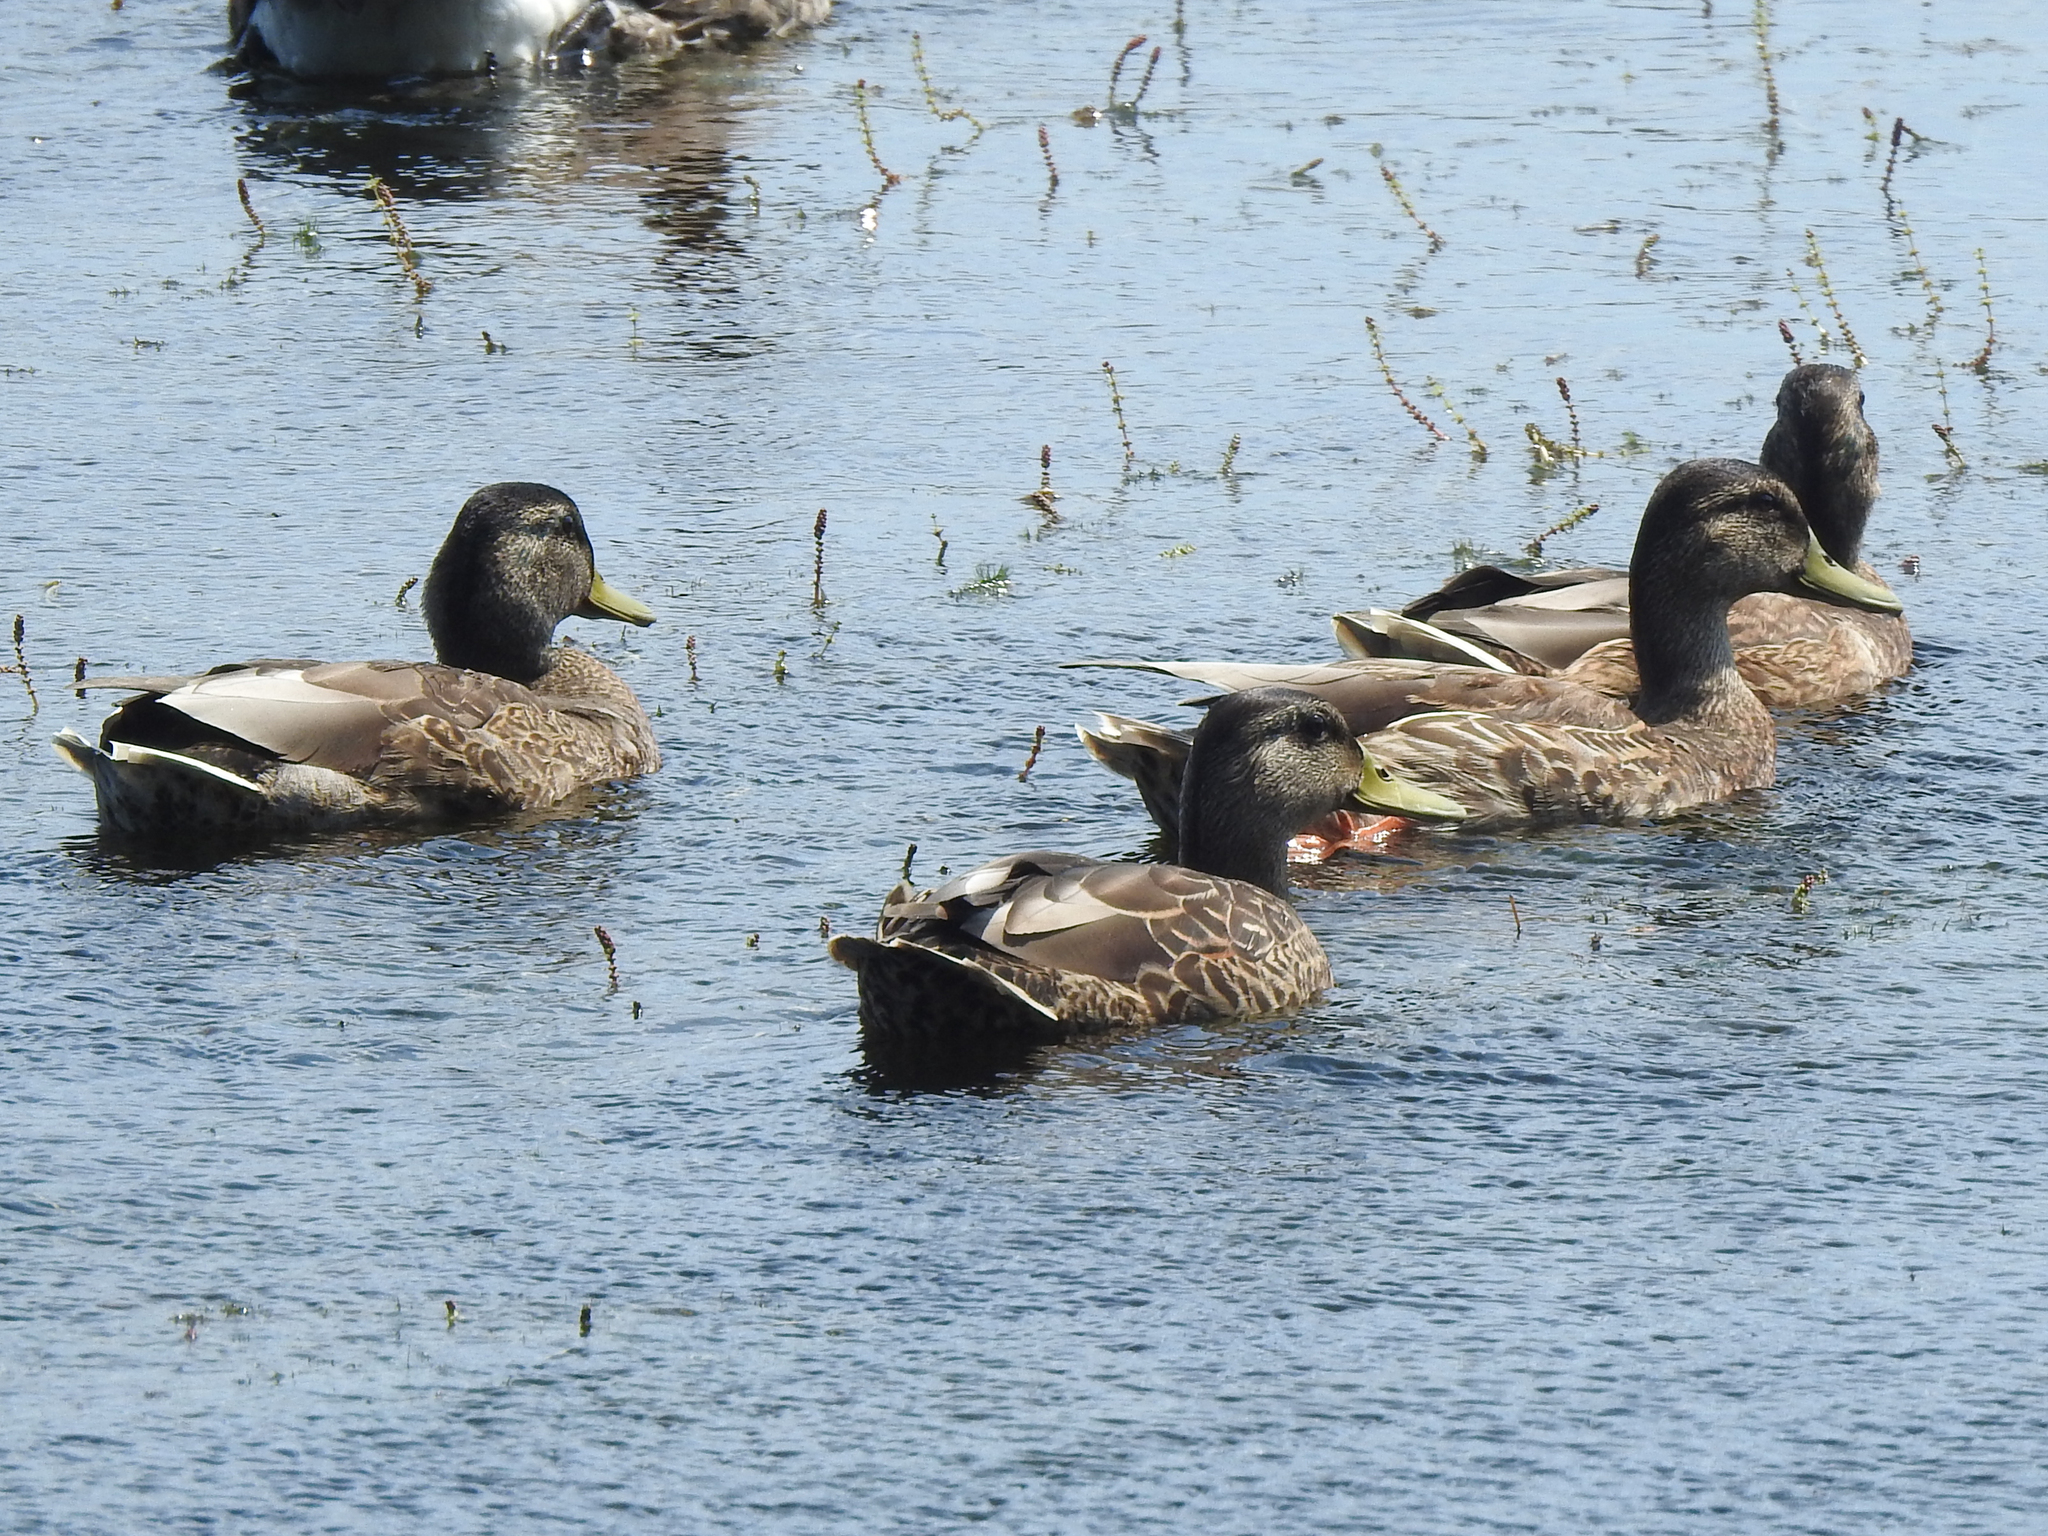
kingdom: Animalia
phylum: Chordata
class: Aves
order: Anseriformes
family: Anatidae
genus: Anas
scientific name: Anas platyrhynchos
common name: Mallard
